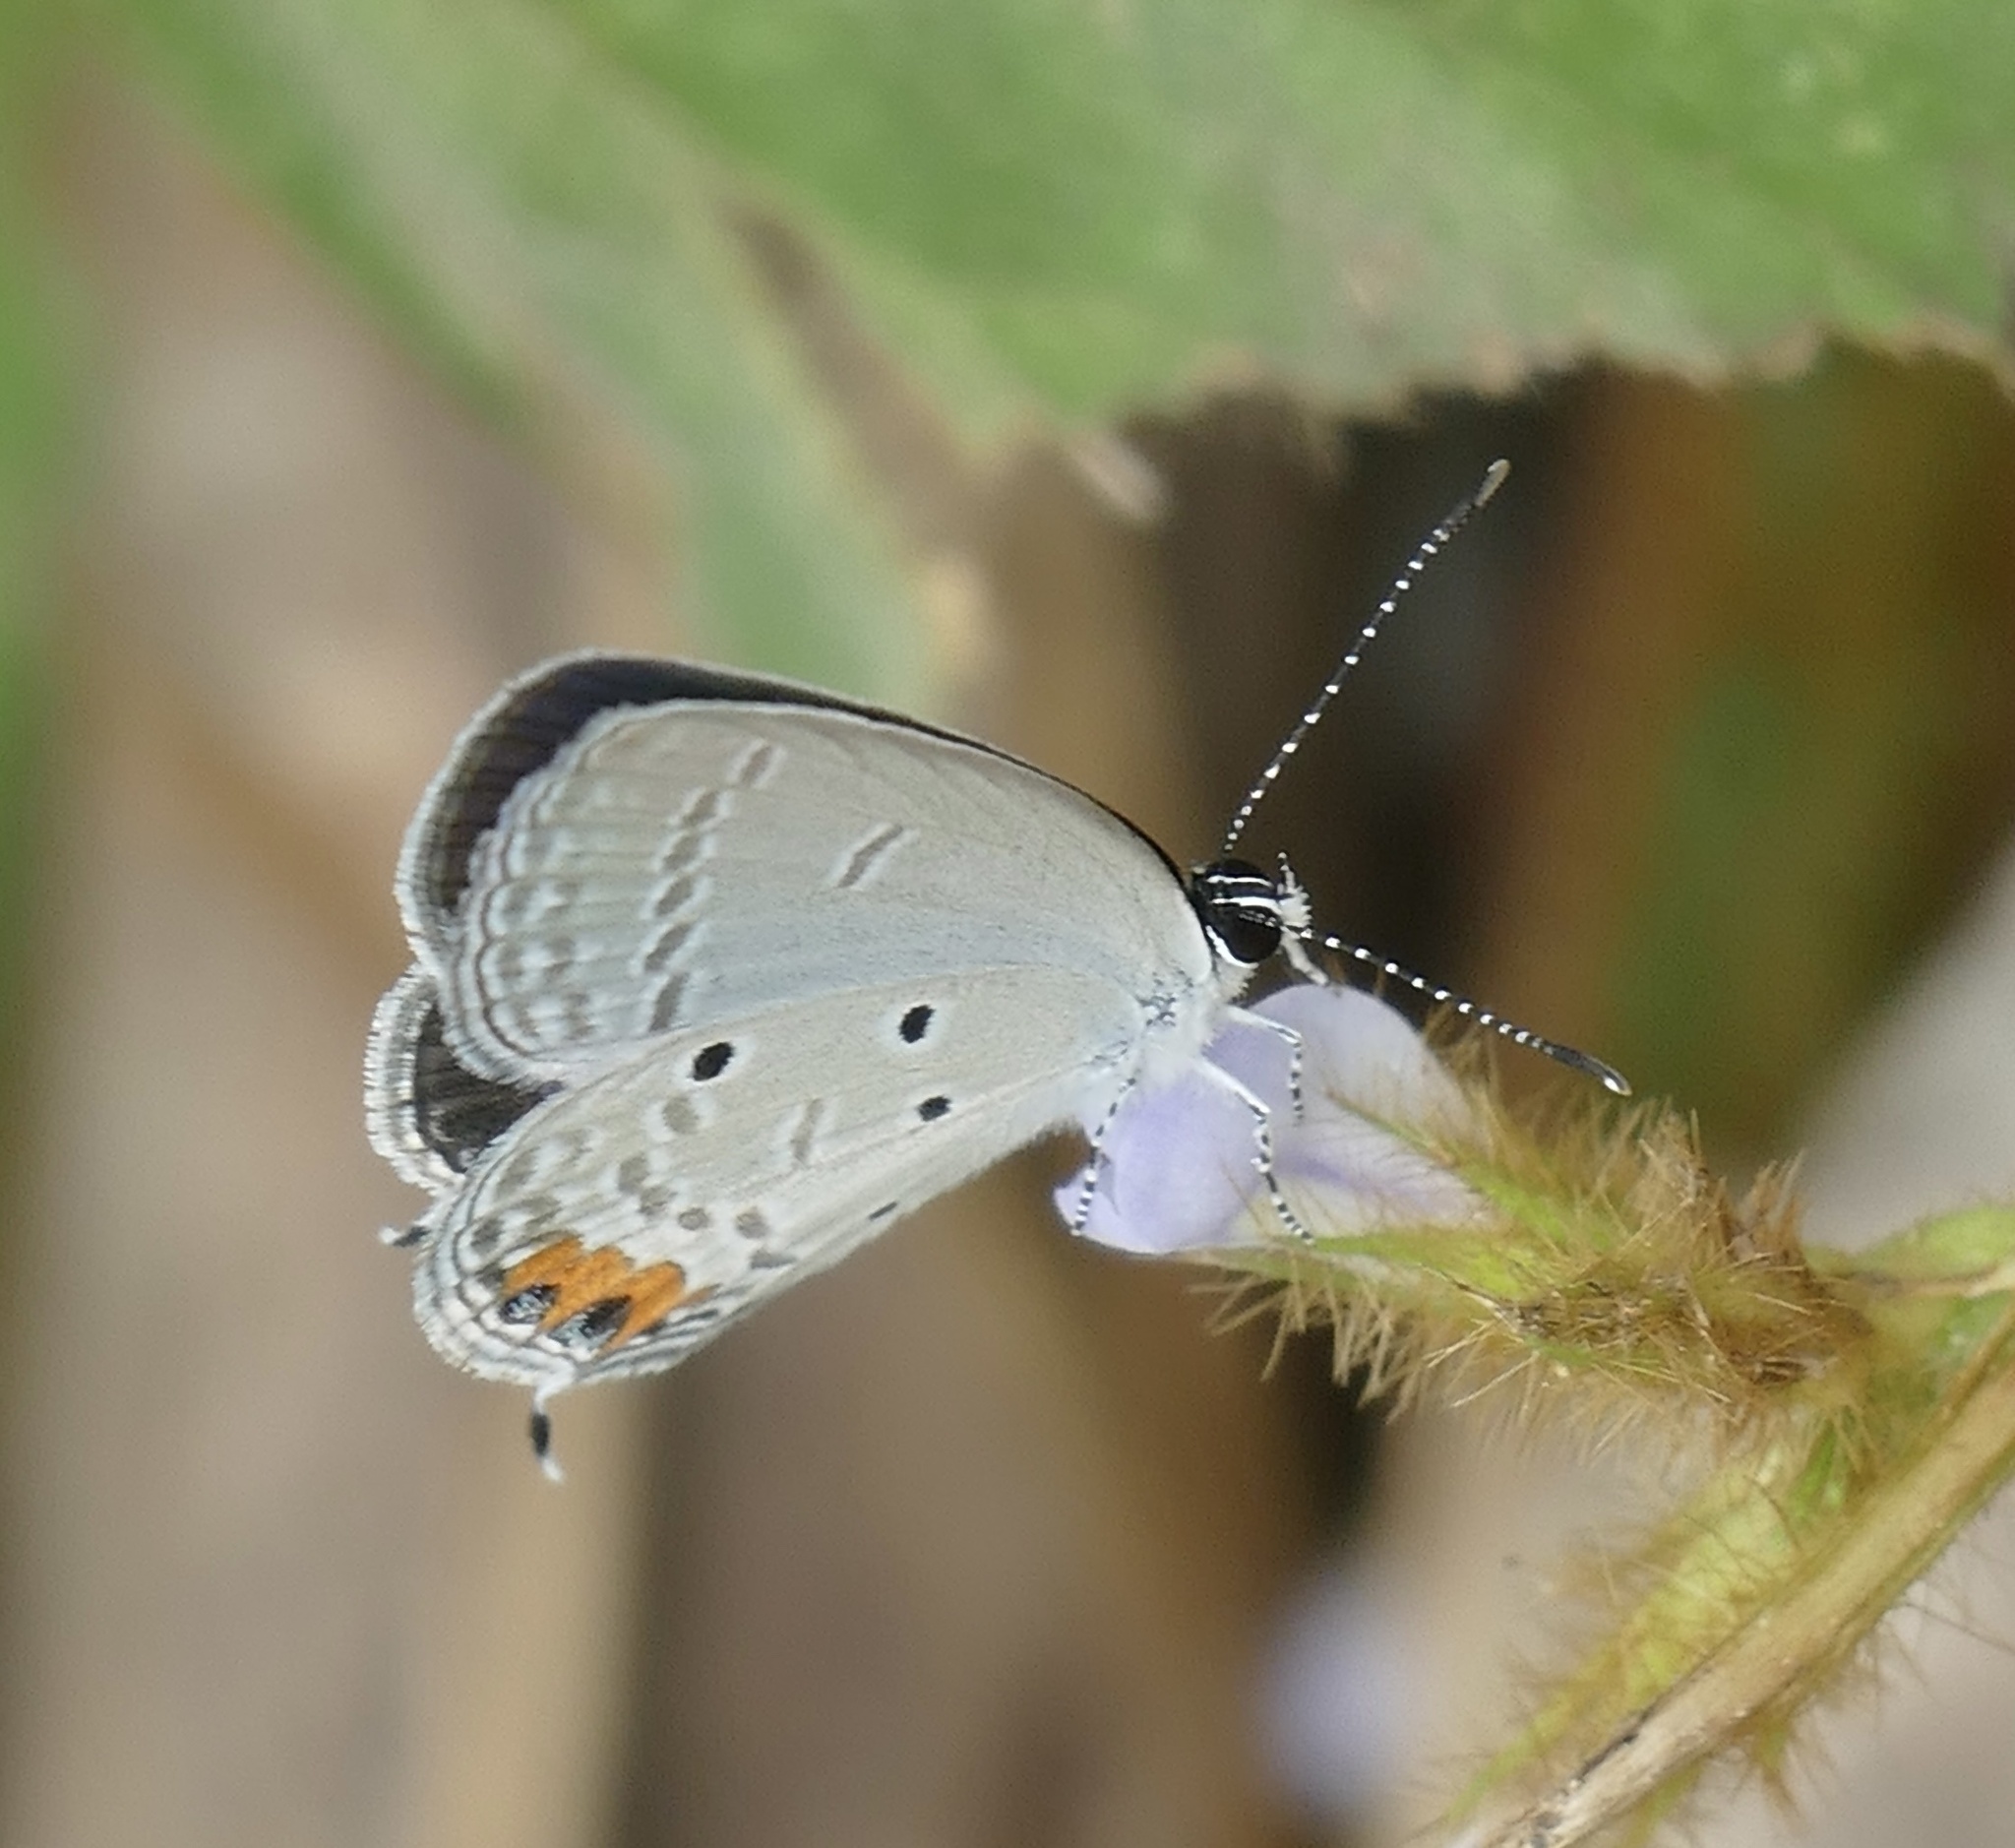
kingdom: Animalia
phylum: Arthropoda
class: Insecta
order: Lepidoptera
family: Lycaenidae
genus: Everes
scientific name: Everes lacturnus
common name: Orange-tipped pea-blue
